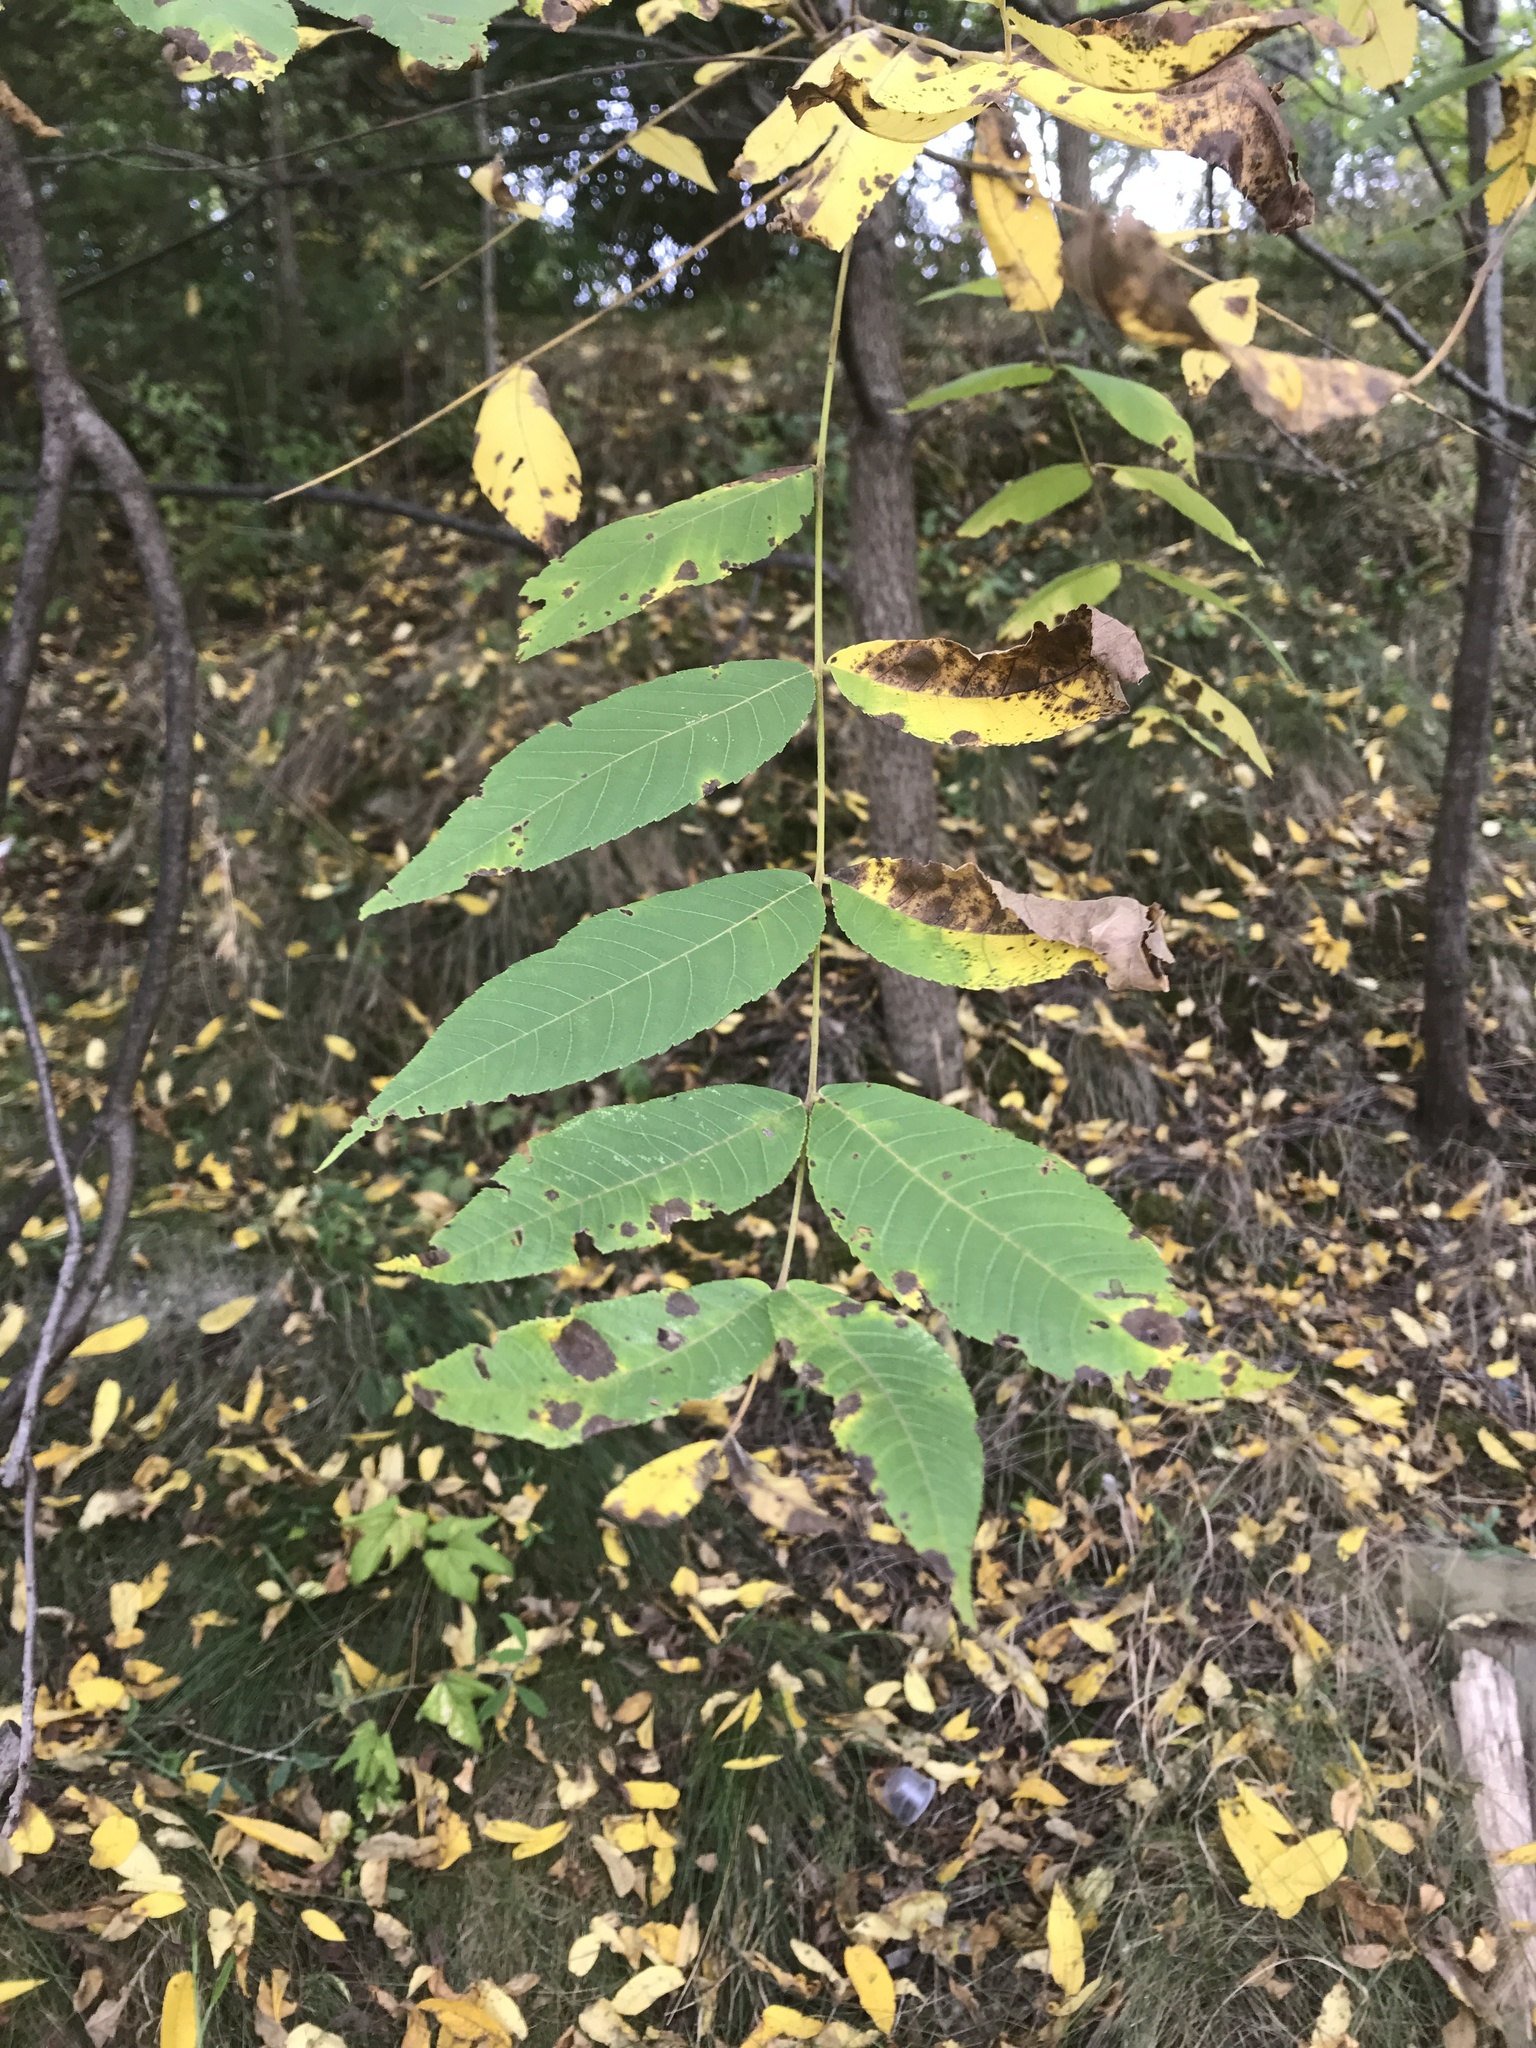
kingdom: Plantae
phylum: Tracheophyta
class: Magnoliopsida
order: Fagales
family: Juglandaceae
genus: Juglans
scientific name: Juglans nigra
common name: Black walnut
